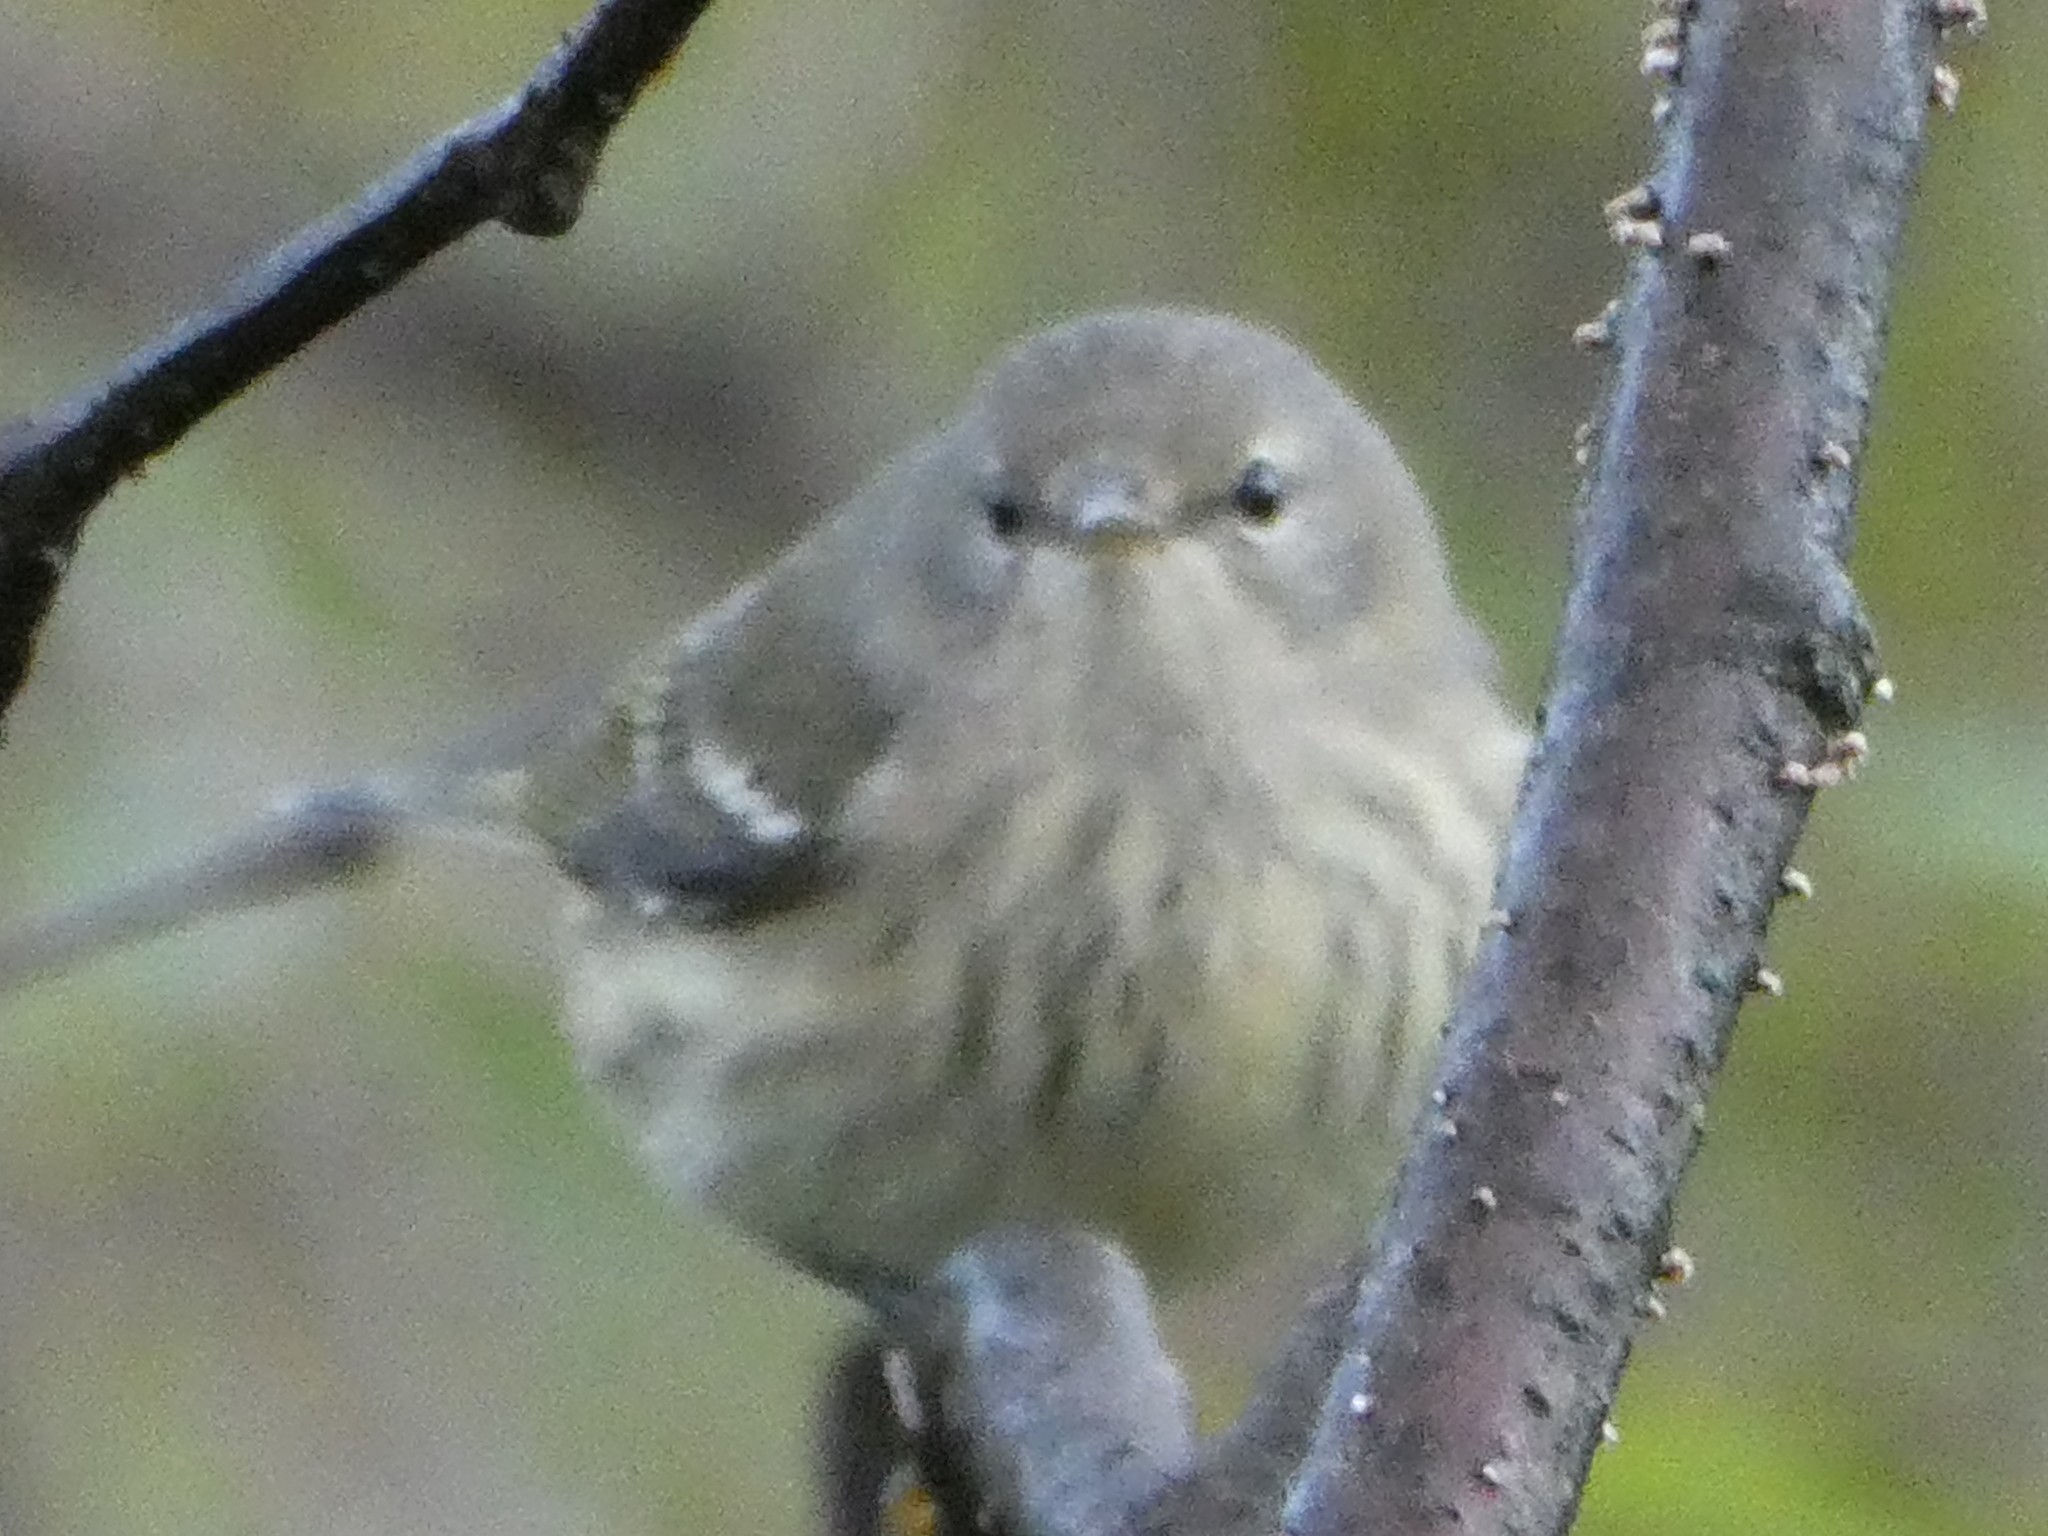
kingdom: Animalia
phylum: Chordata
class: Aves
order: Passeriformes
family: Parulidae
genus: Setophaga
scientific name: Setophaga tigrina
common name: Cape may warbler
